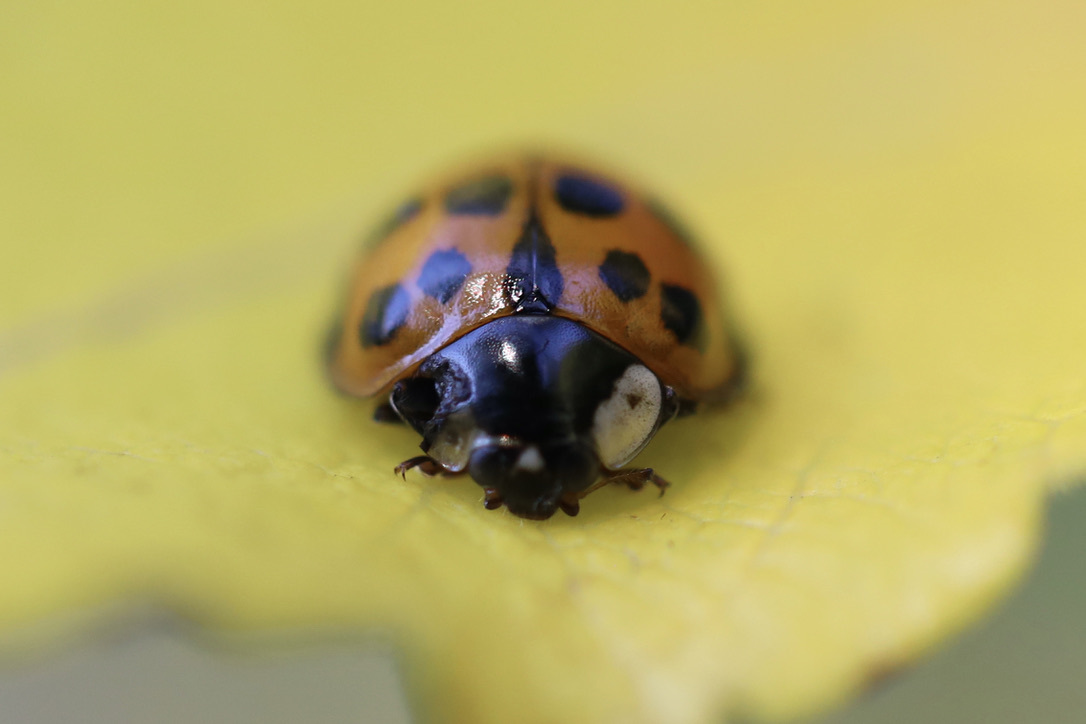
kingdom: Animalia
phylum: Arthropoda
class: Insecta
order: Coleoptera
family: Coccinellidae
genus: Harmonia
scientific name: Harmonia axyridis
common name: Harlequin ladybird
